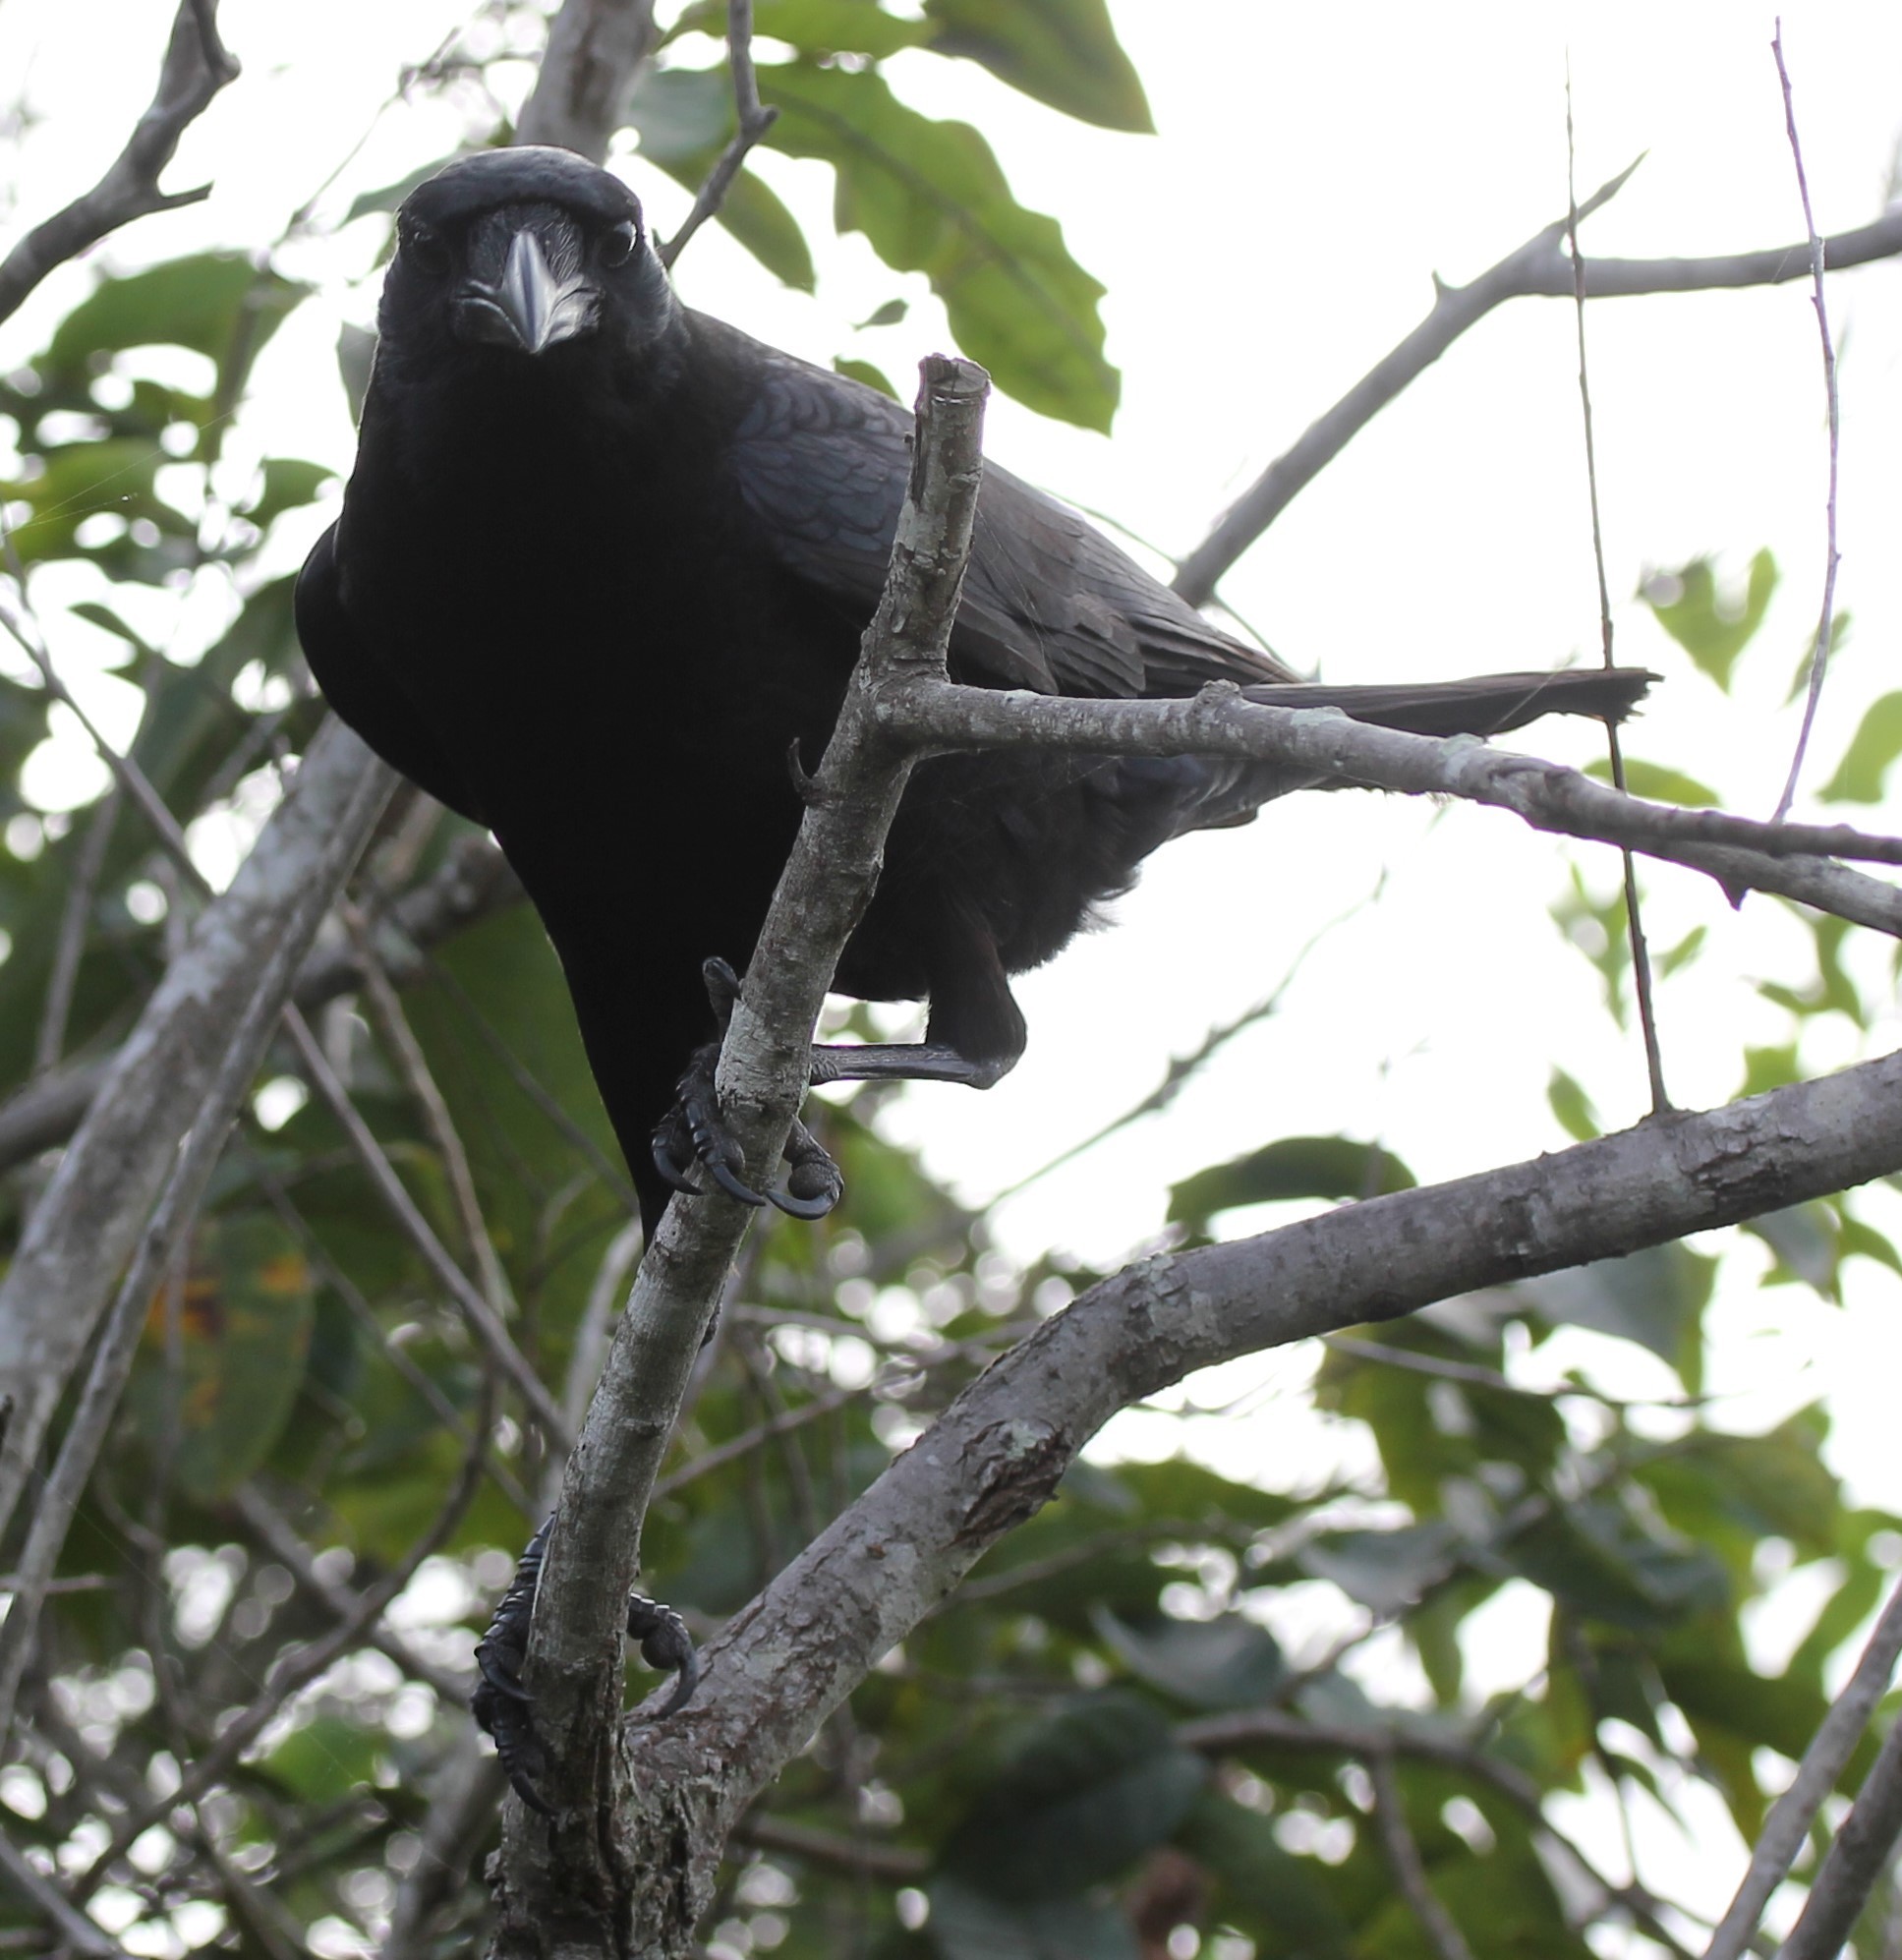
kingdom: Animalia
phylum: Chordata
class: Aves
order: Passeriformes
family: Corvidae
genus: Corvus
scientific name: Corvus brachyrhynchos
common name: American crow
